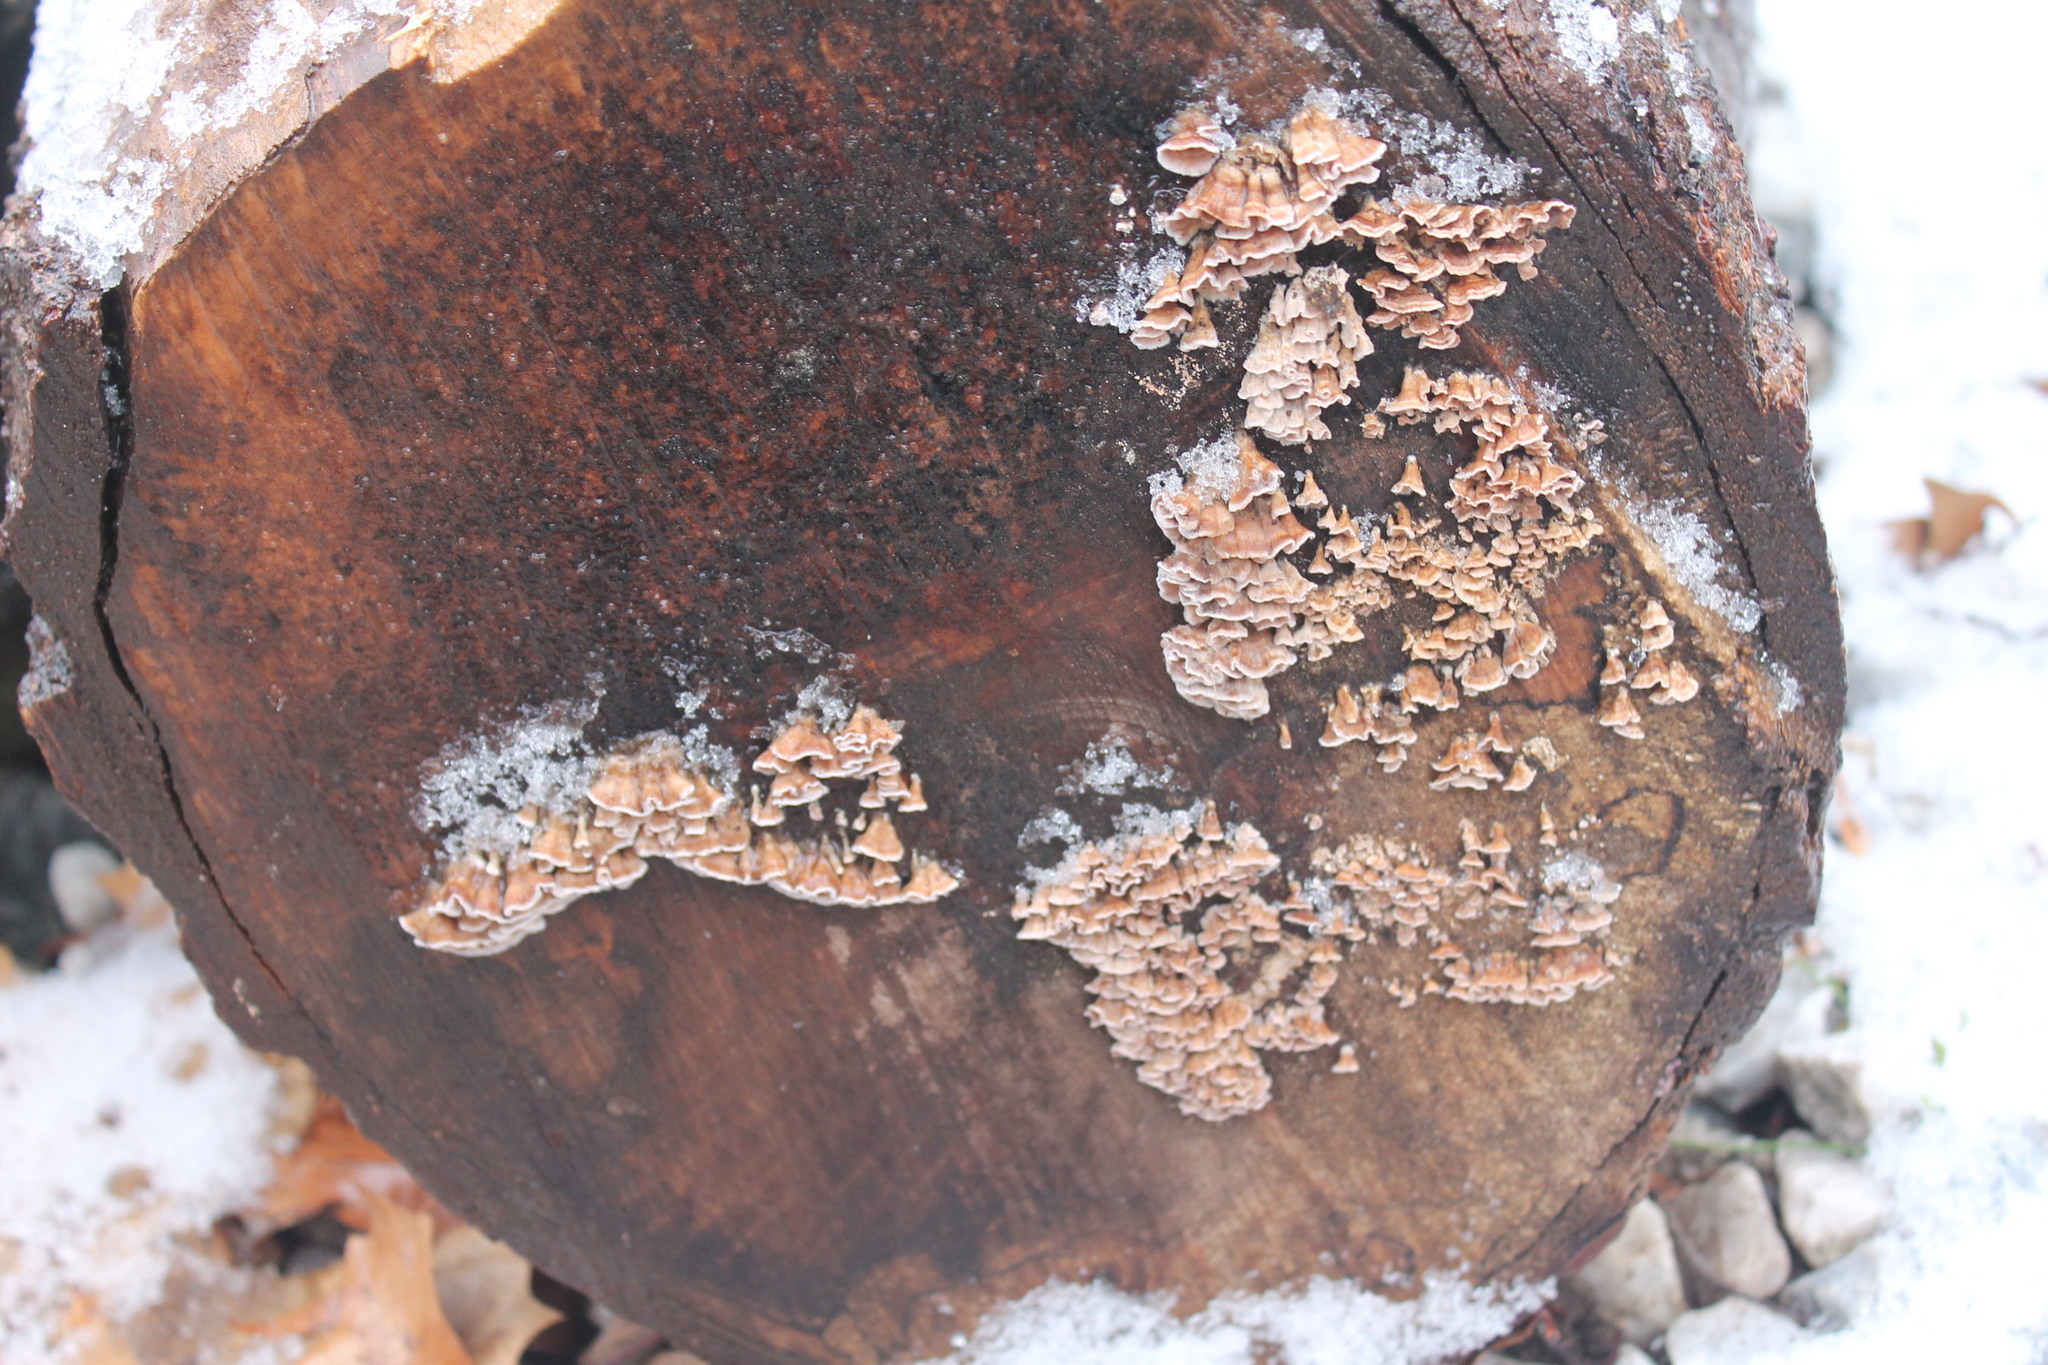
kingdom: Fungi
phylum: Basidiomycota
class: Agaricomycetes
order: Amylocorticiales
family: Amylocorticiaceae
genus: Plicaturopsis
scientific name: Plicaturopsis crispa
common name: Crimped gill
